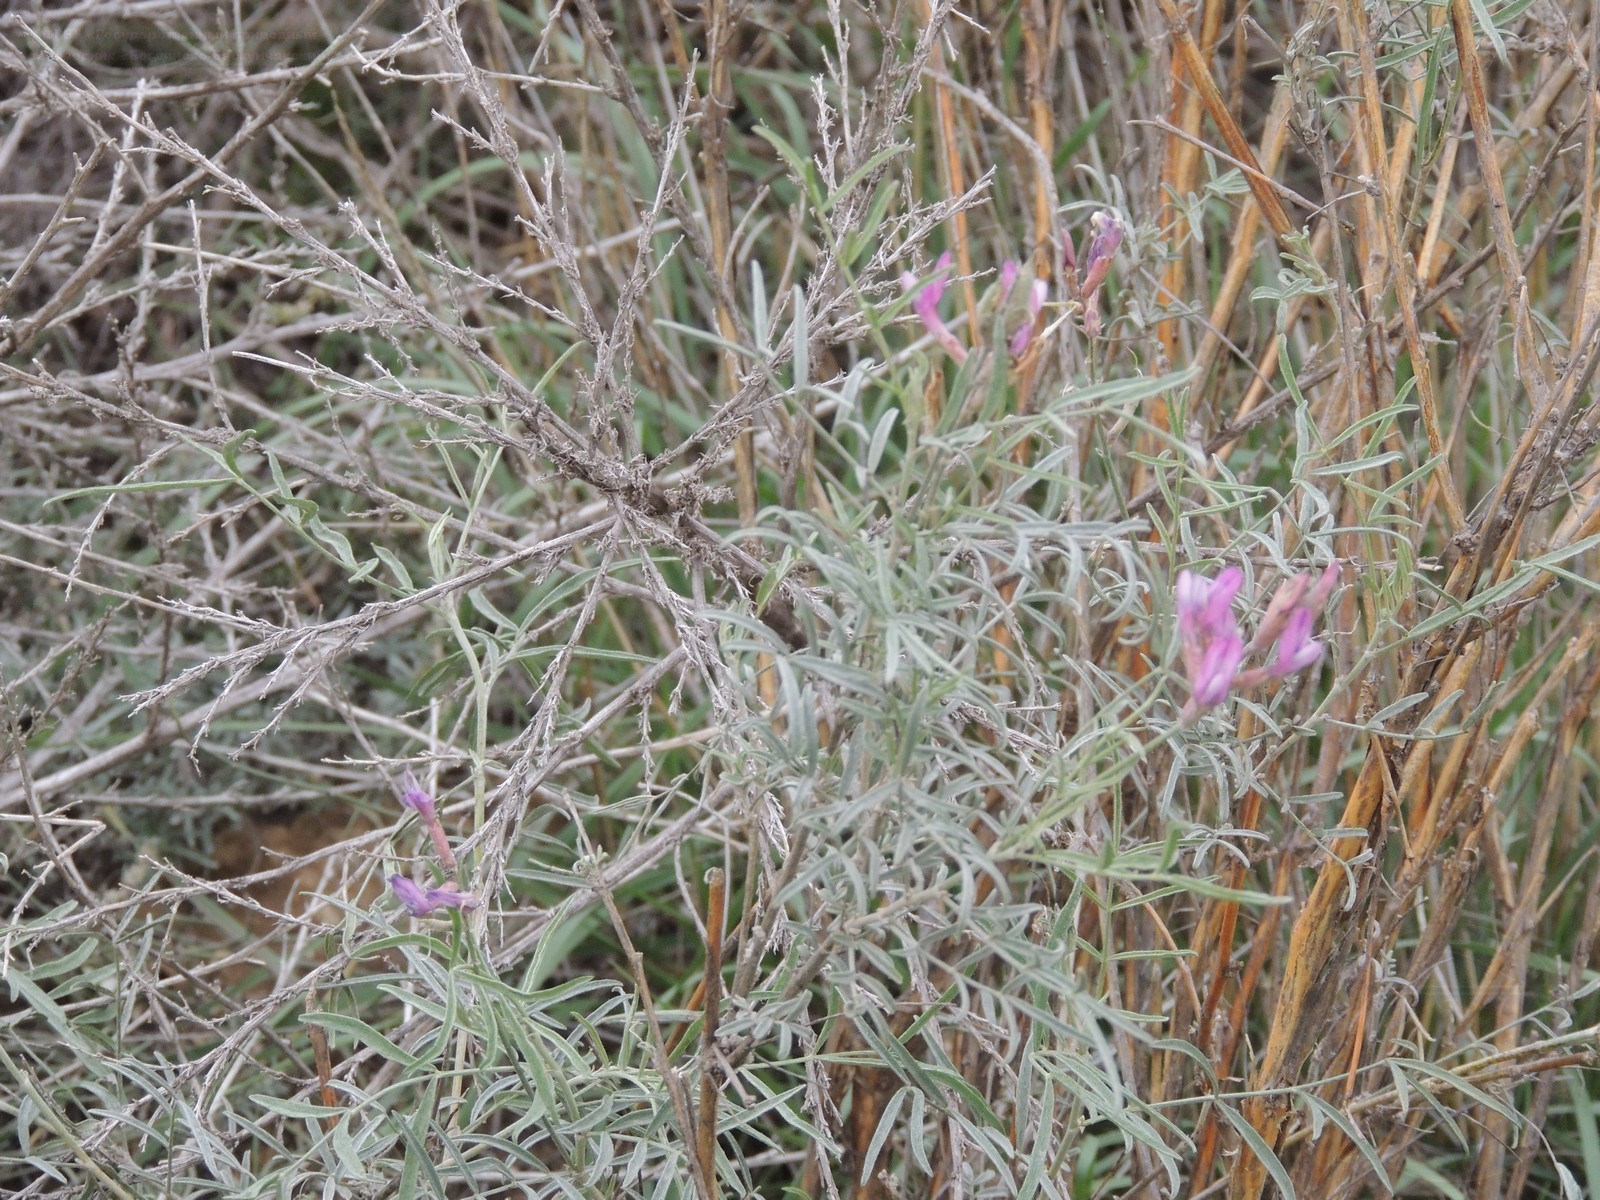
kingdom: Plantae
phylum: Tracheophyta
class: Magnoliopsida
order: Fabales
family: Fabaceae
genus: Astragalus
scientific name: Astragalus brachylobus
